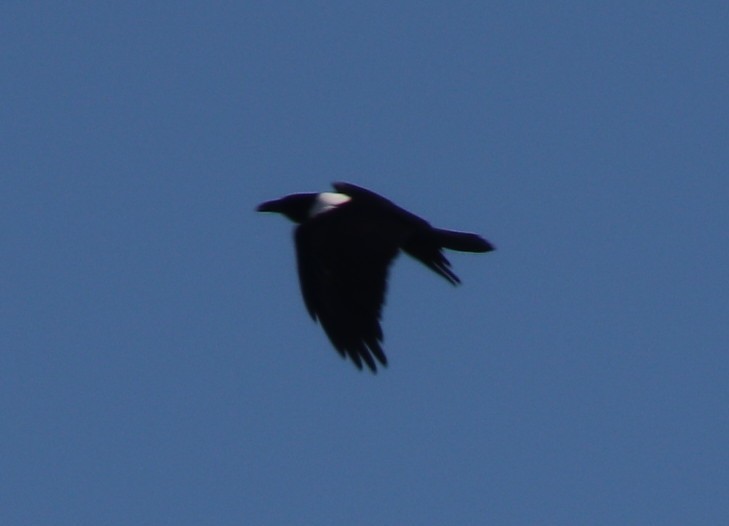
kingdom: Animalia
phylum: Chordata
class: Aves
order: Passeriformes
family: Corvidae
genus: Corvus
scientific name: Corvus albus
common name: Pied crow
